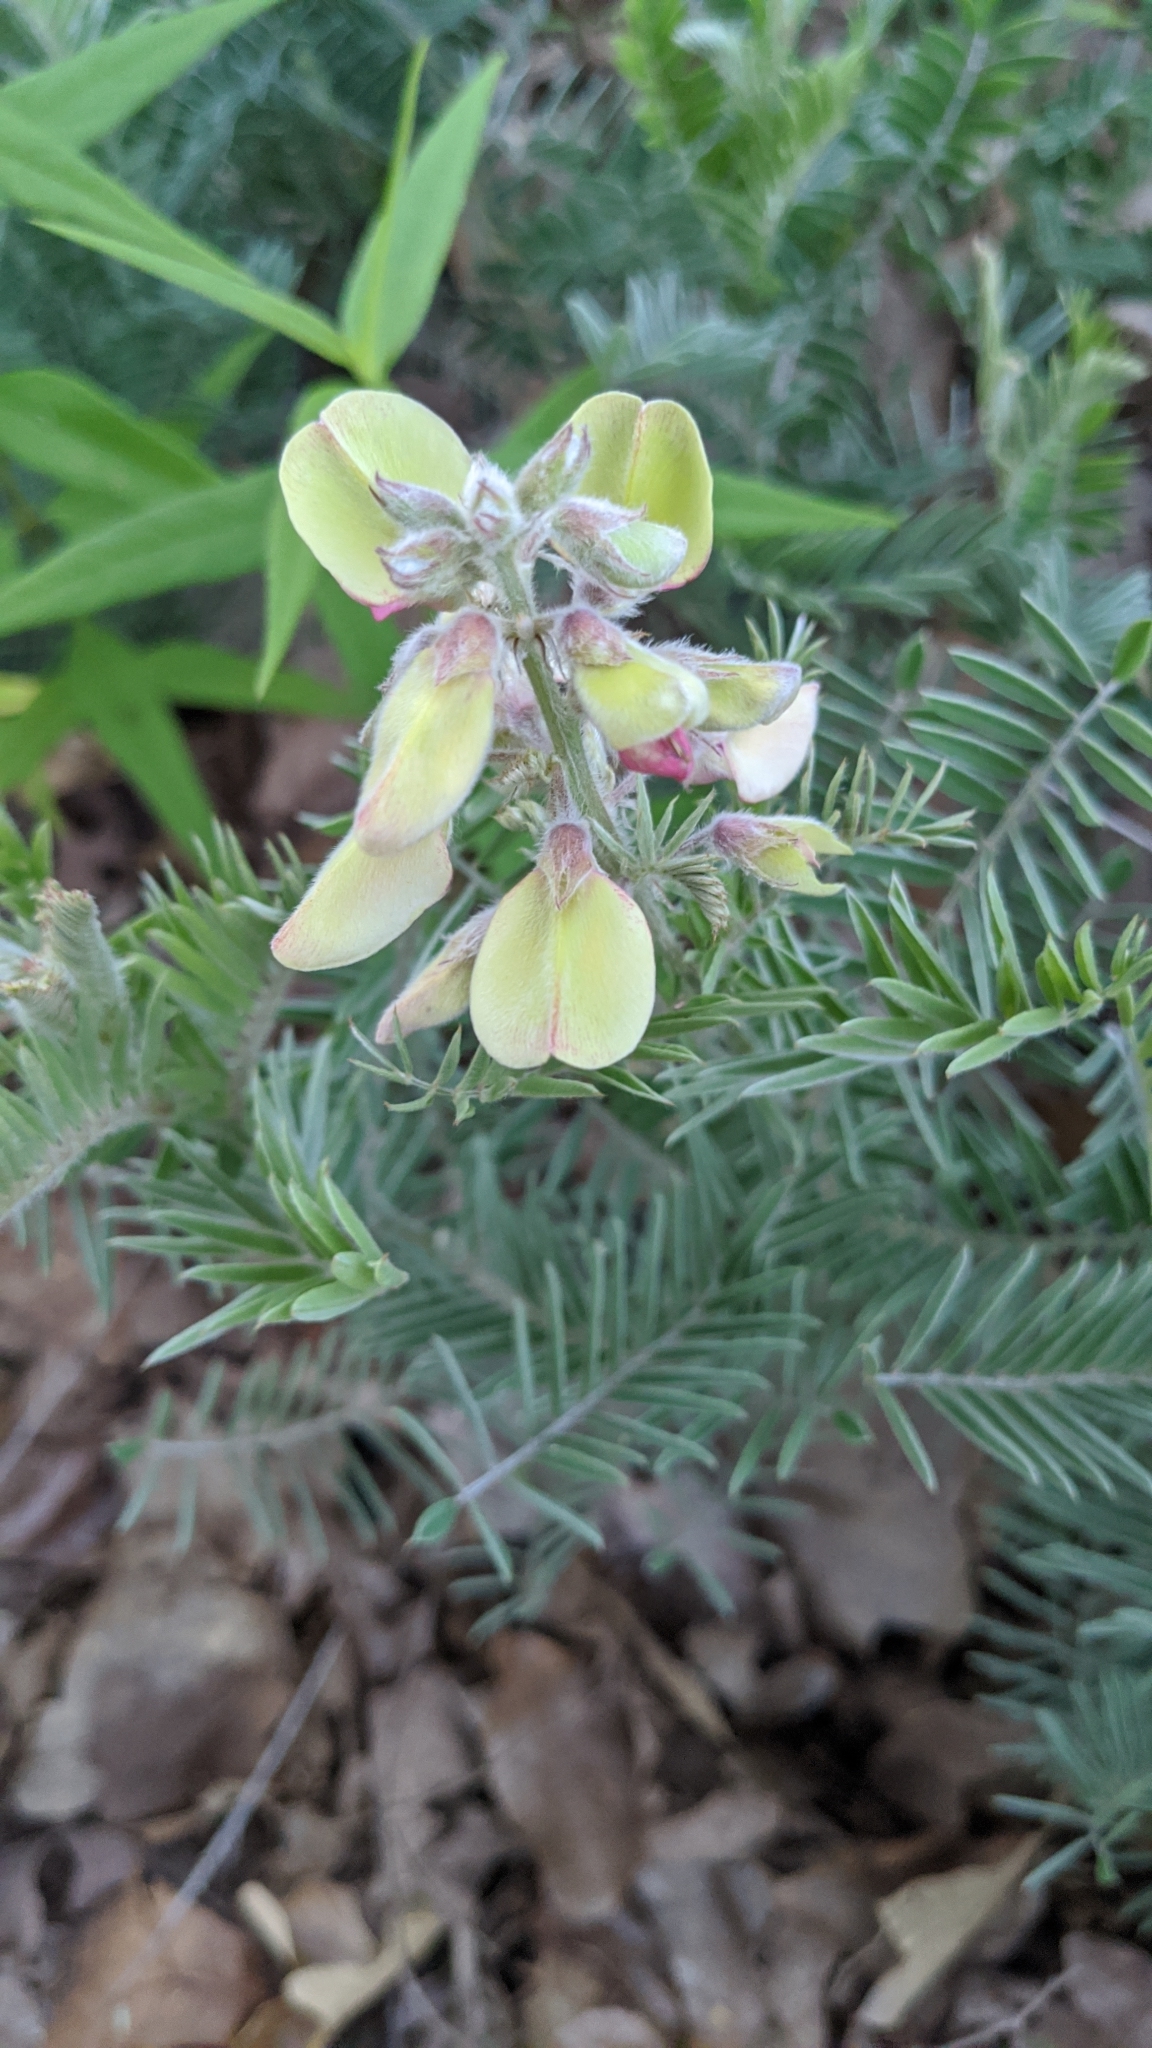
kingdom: Plantae
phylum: Tracheophyta
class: Magnoliopsida
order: Fabales
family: Fabaceae
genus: Tephrosia
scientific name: Tephrosia virginiana
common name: Rabbit-pea
